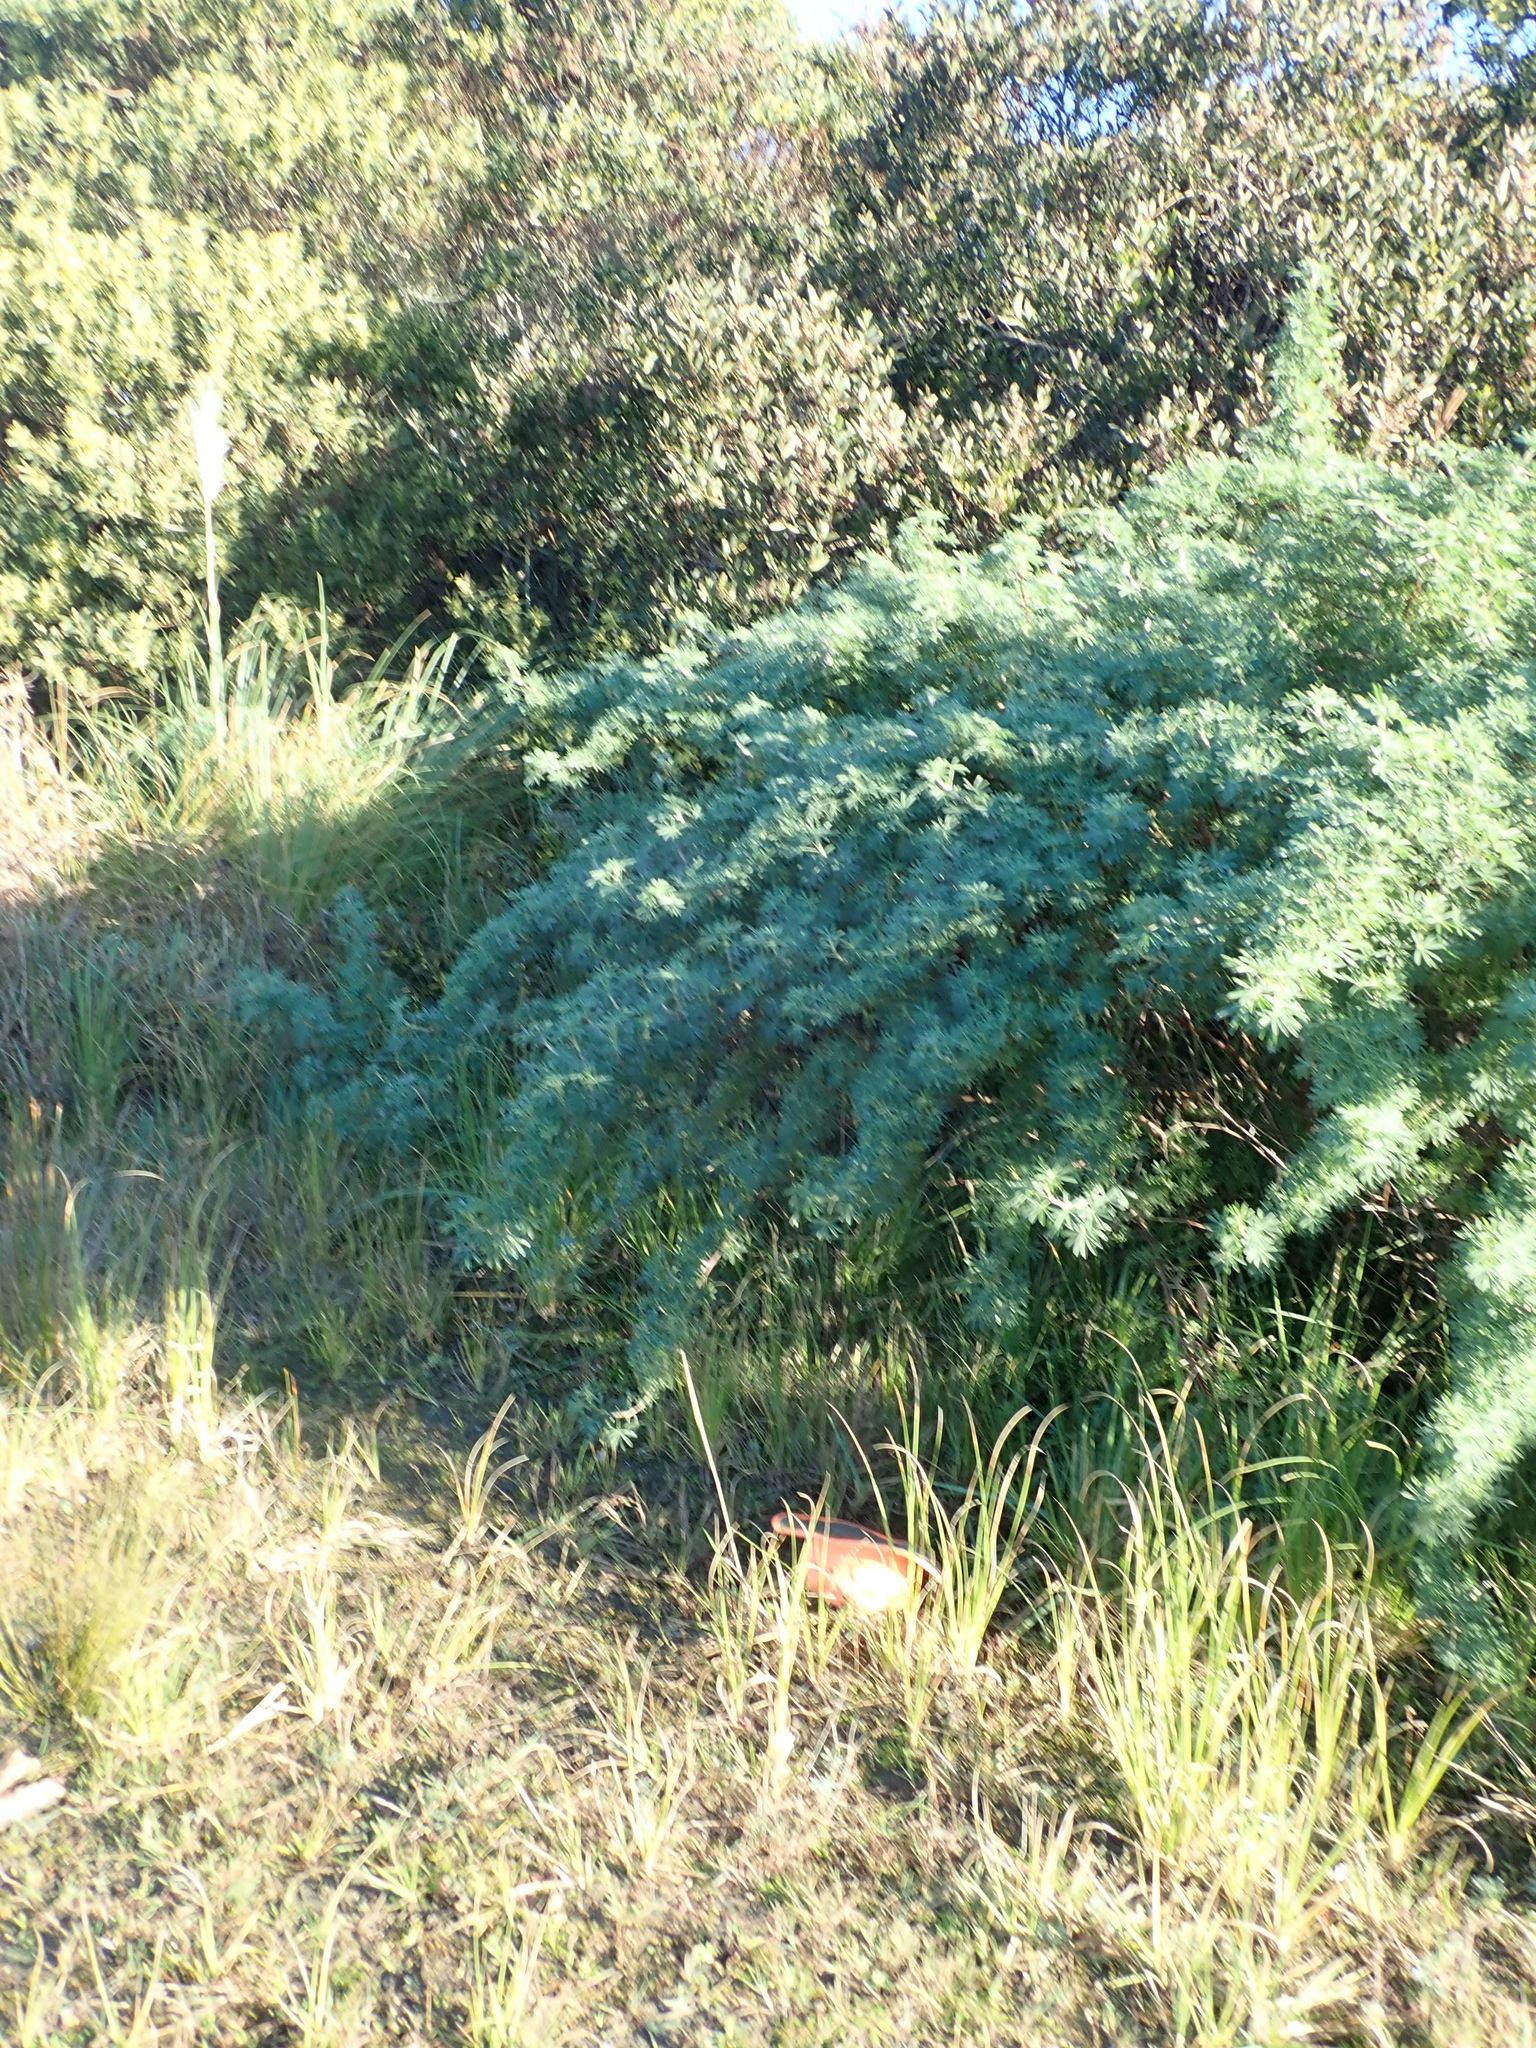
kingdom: Plantae
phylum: Tracheophyta
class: Magnoliopsida
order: Lamiales
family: Orobanchaceae
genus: Bellardia
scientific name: Bellardia viscosa
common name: Sticky parentucellia
